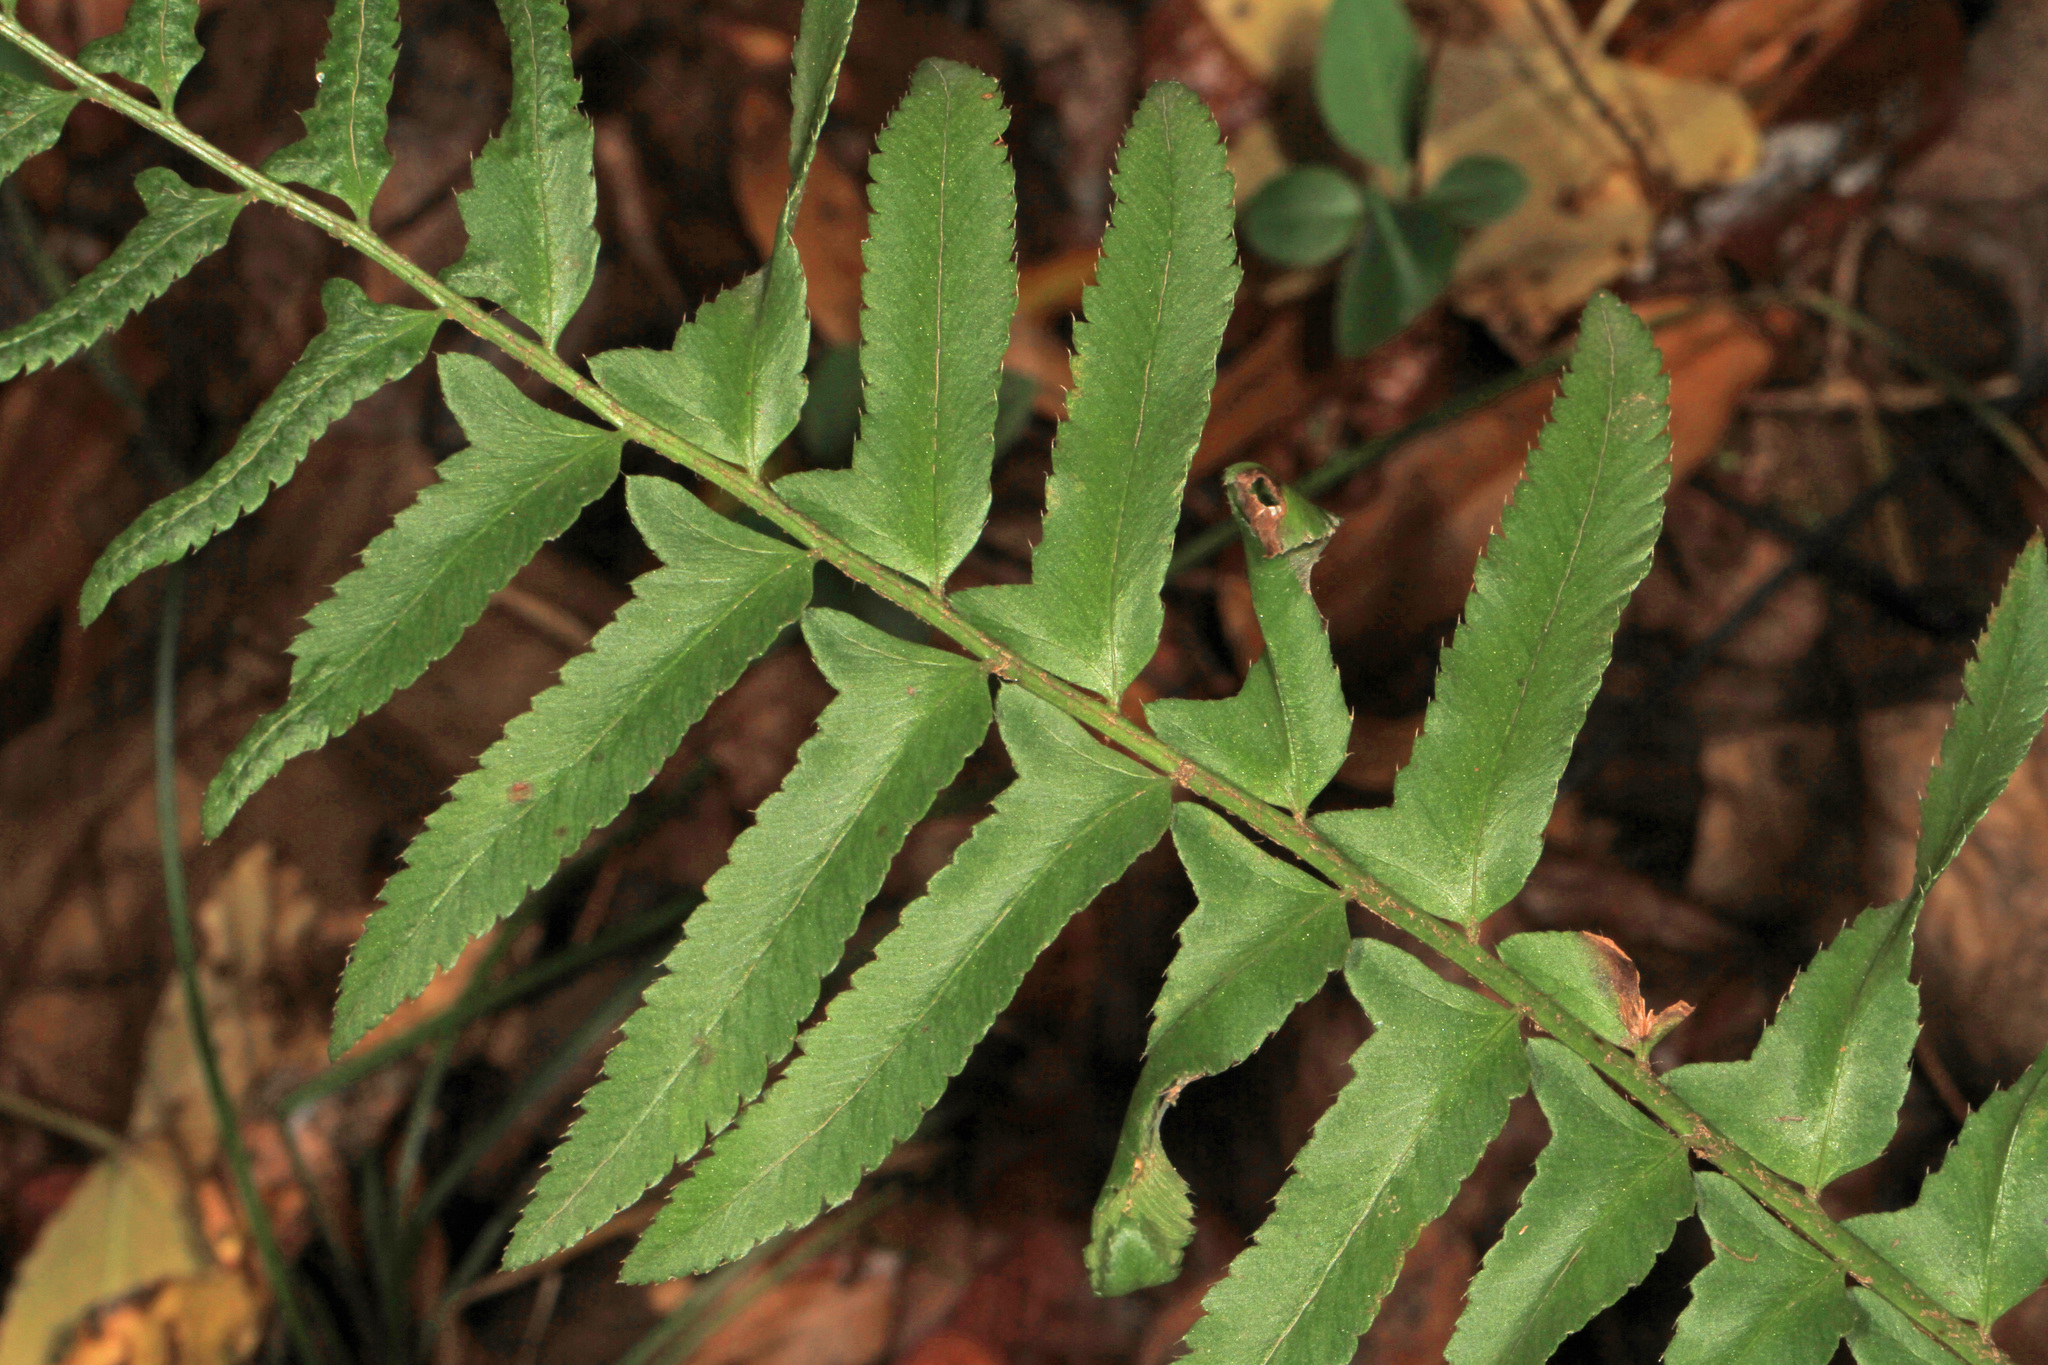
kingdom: Plantae
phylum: Tracheophyta
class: Polypodiopsida
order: Polypodiales
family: Dryopteridaceae
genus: Polystichum
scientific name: Polystichum acrostichoides
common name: Christmas fern
